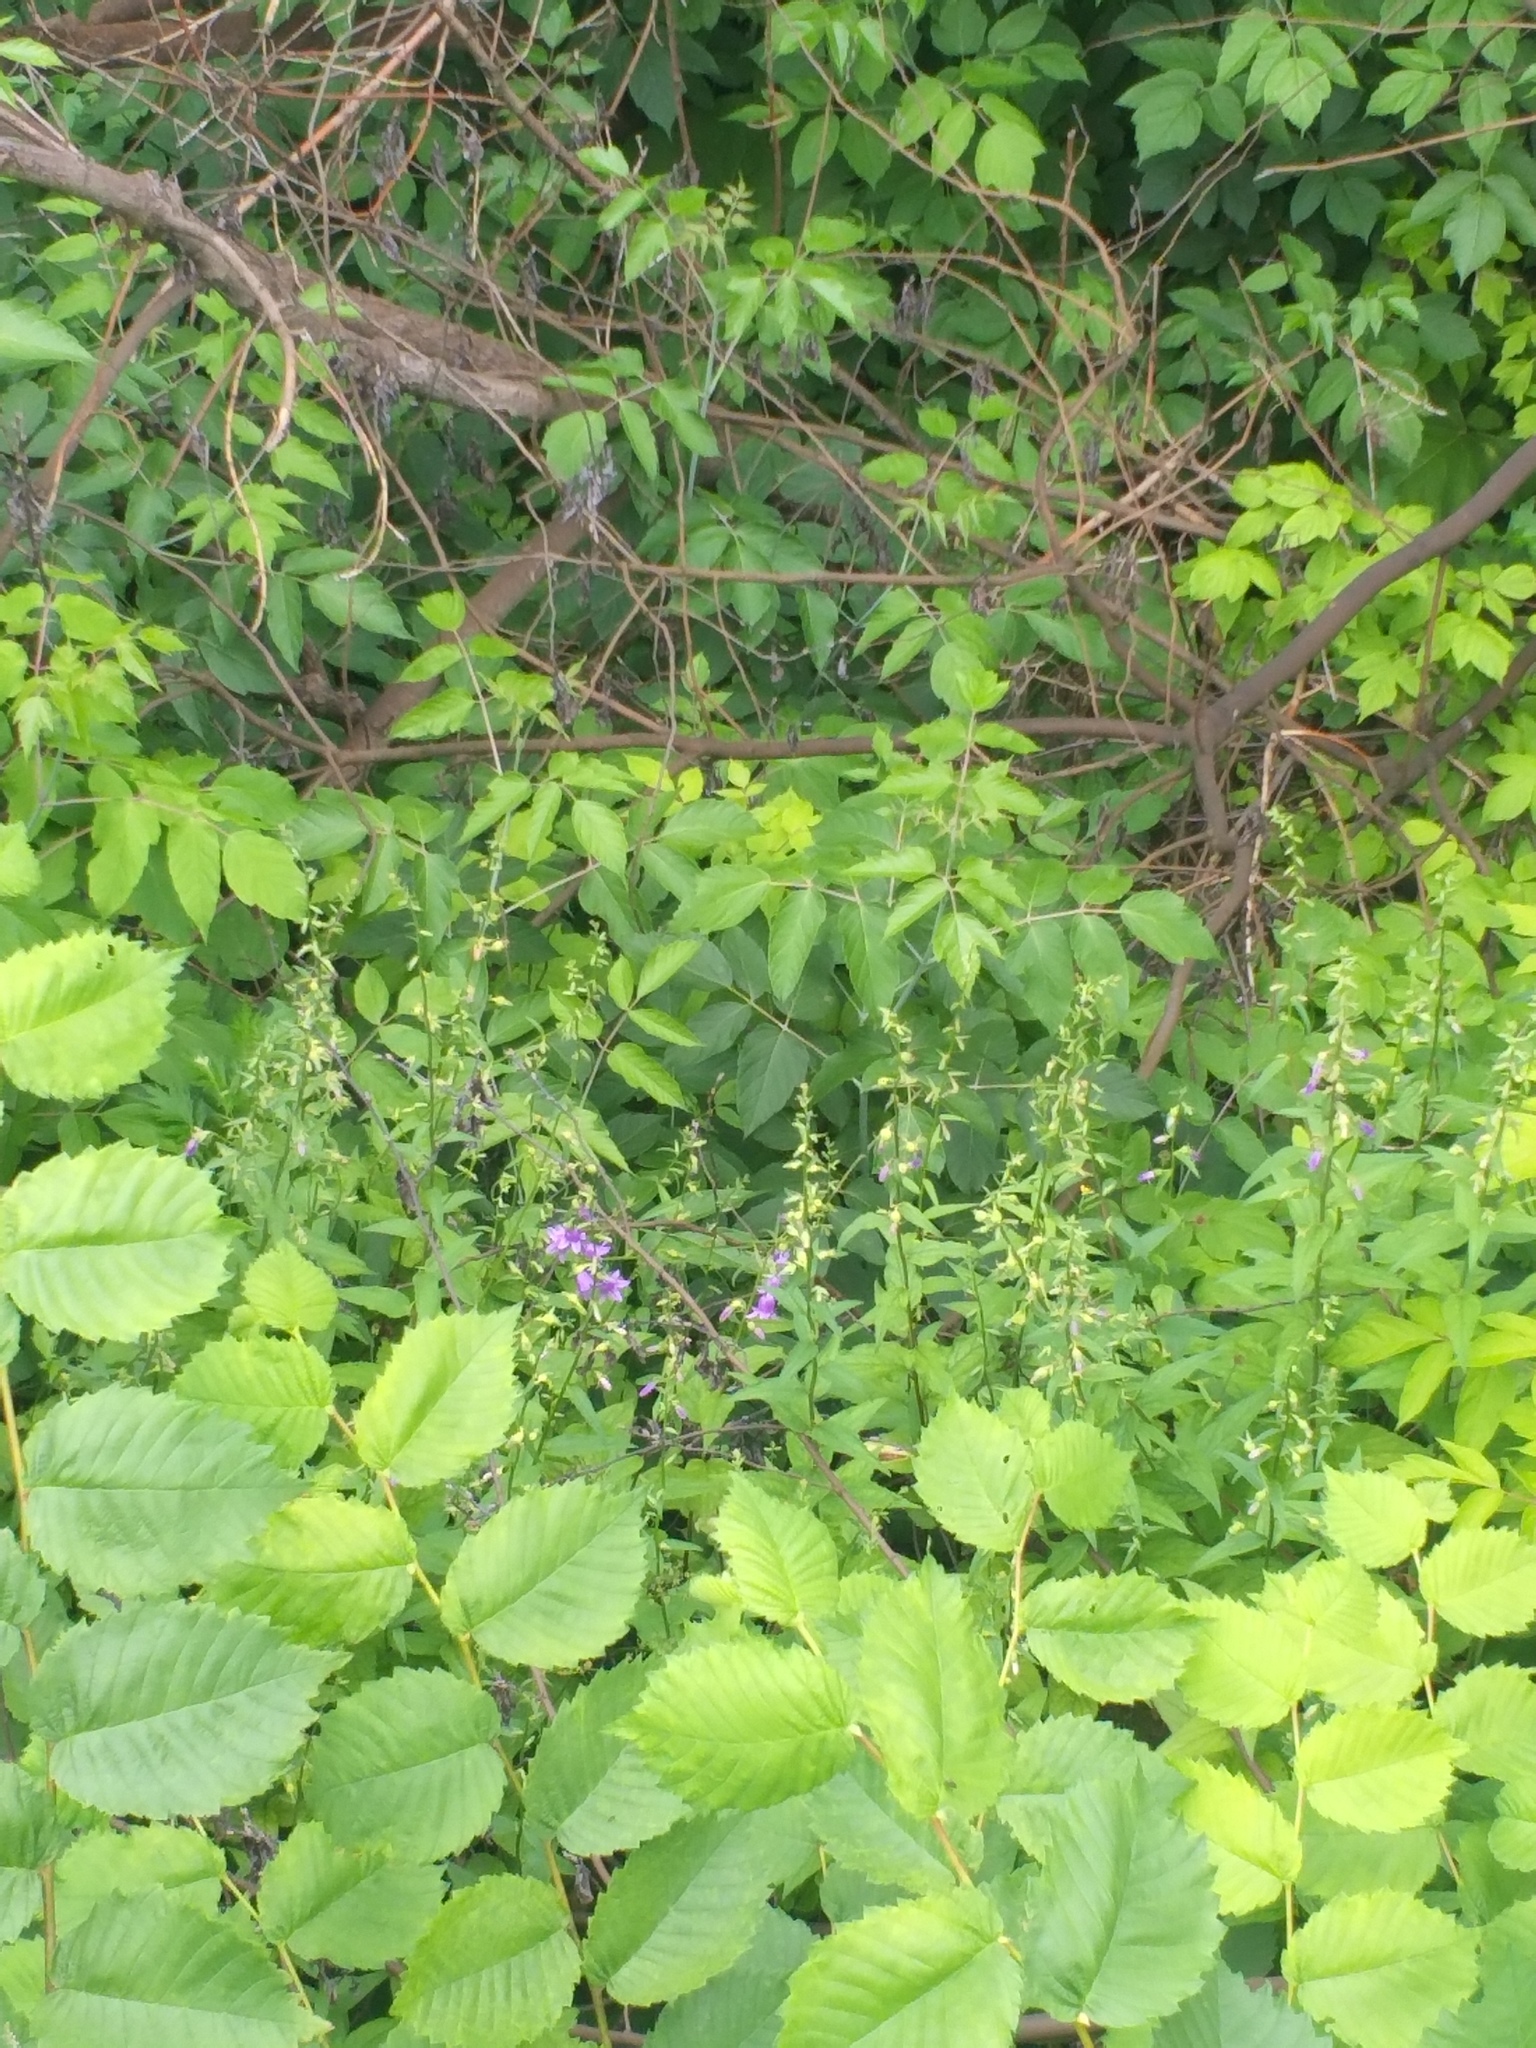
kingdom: Plantae
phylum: Tracheophyta
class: Magnoliopsida
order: Asterales
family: Campanulaceae
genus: Campanula
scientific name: Campanula rapunculoides
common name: Creeping bellflower
